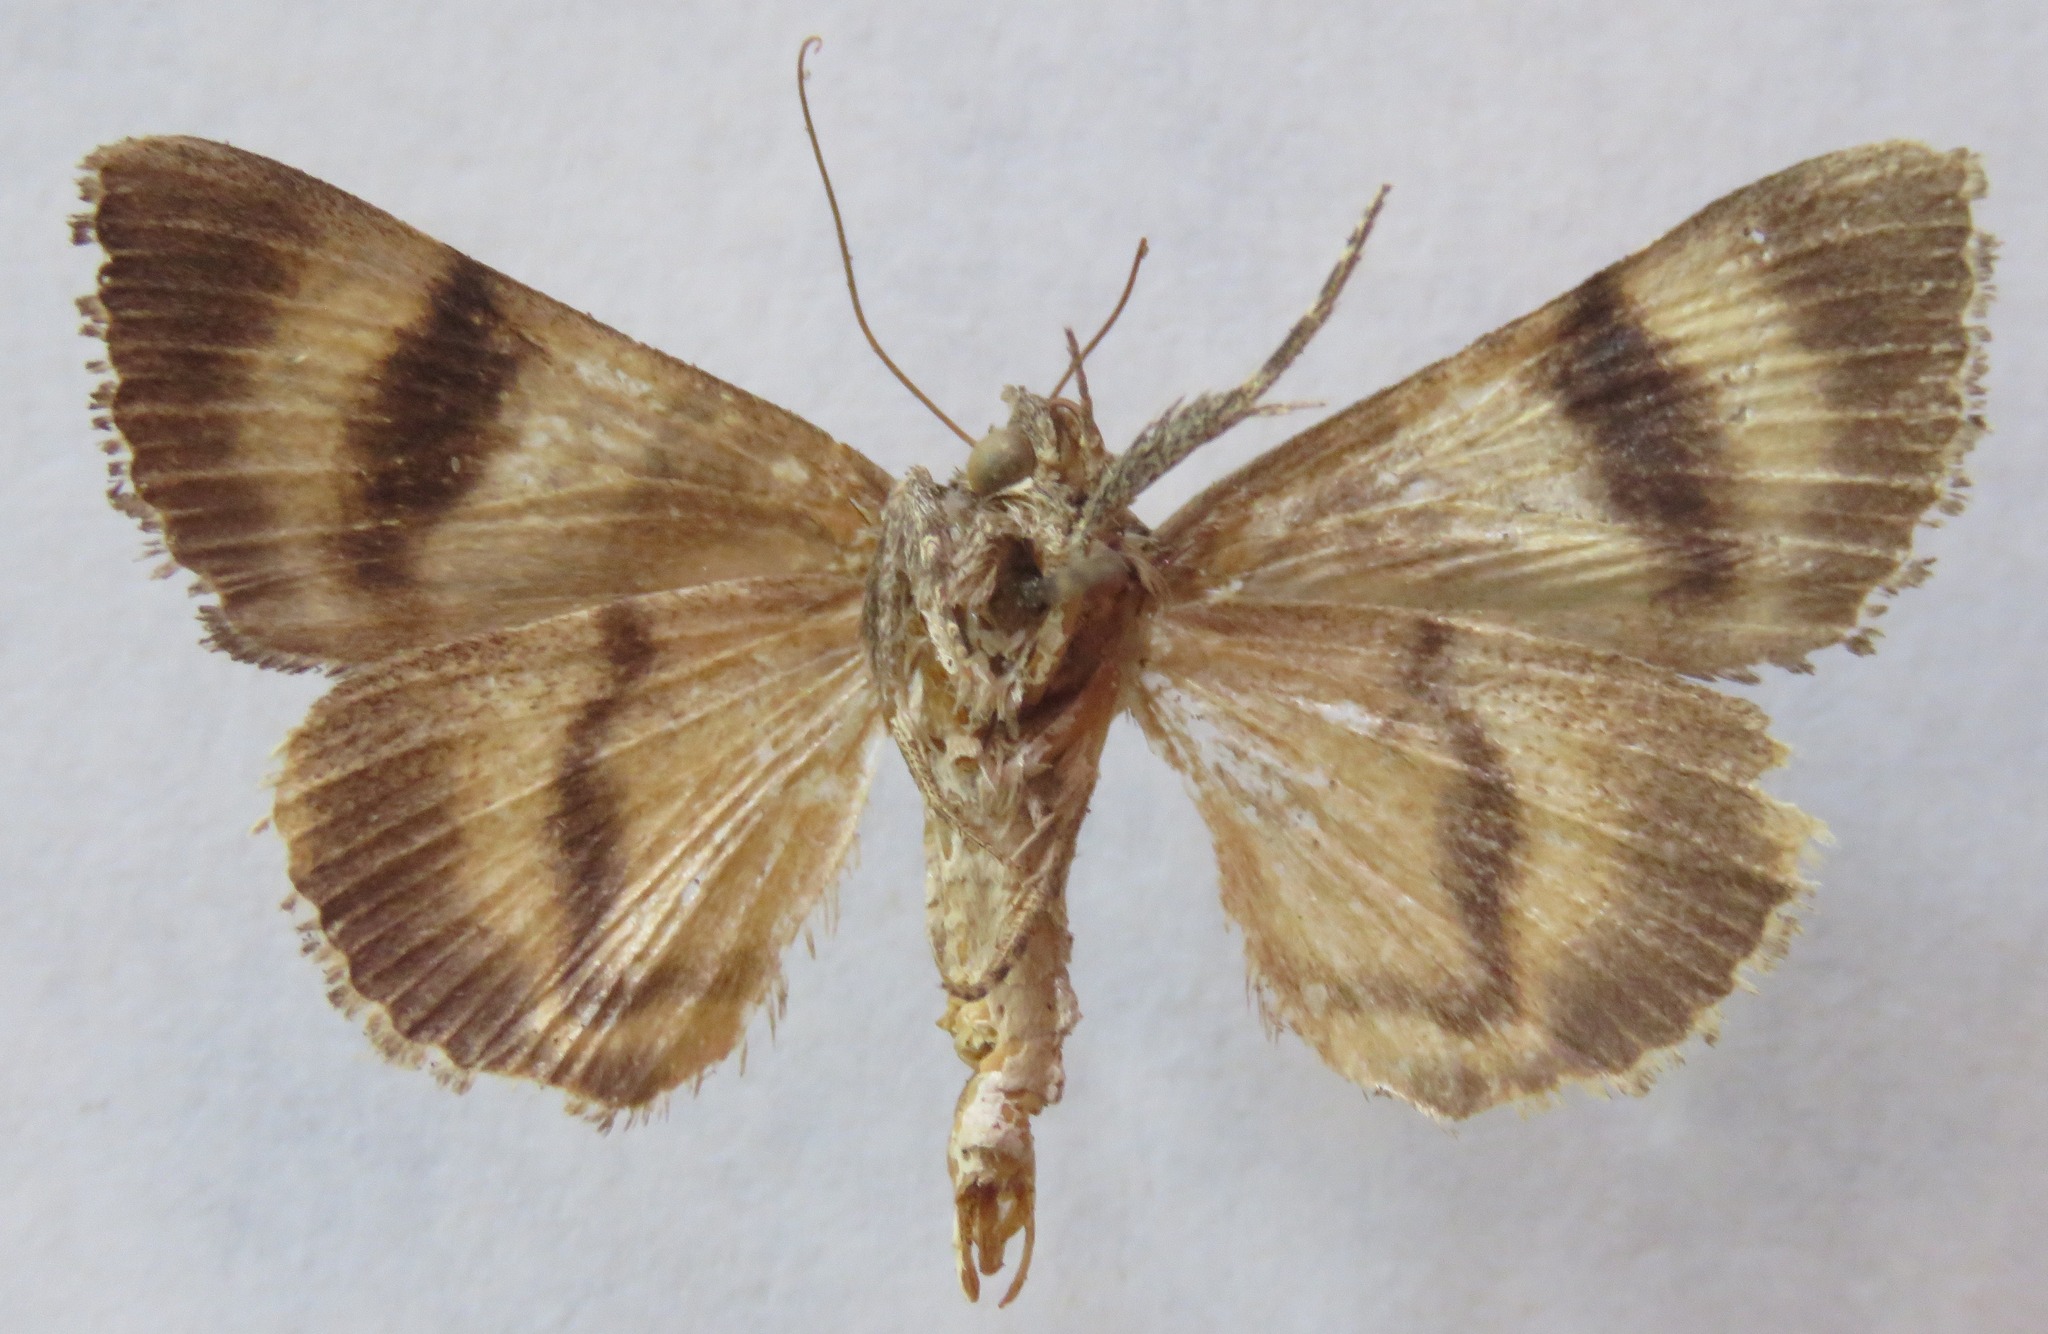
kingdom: Animalia
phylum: Arthropoda
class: Insecta
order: Lepidoptera
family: Erebidae
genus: Catocala
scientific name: Catocala nymphagoga
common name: Oak yellow underwing
